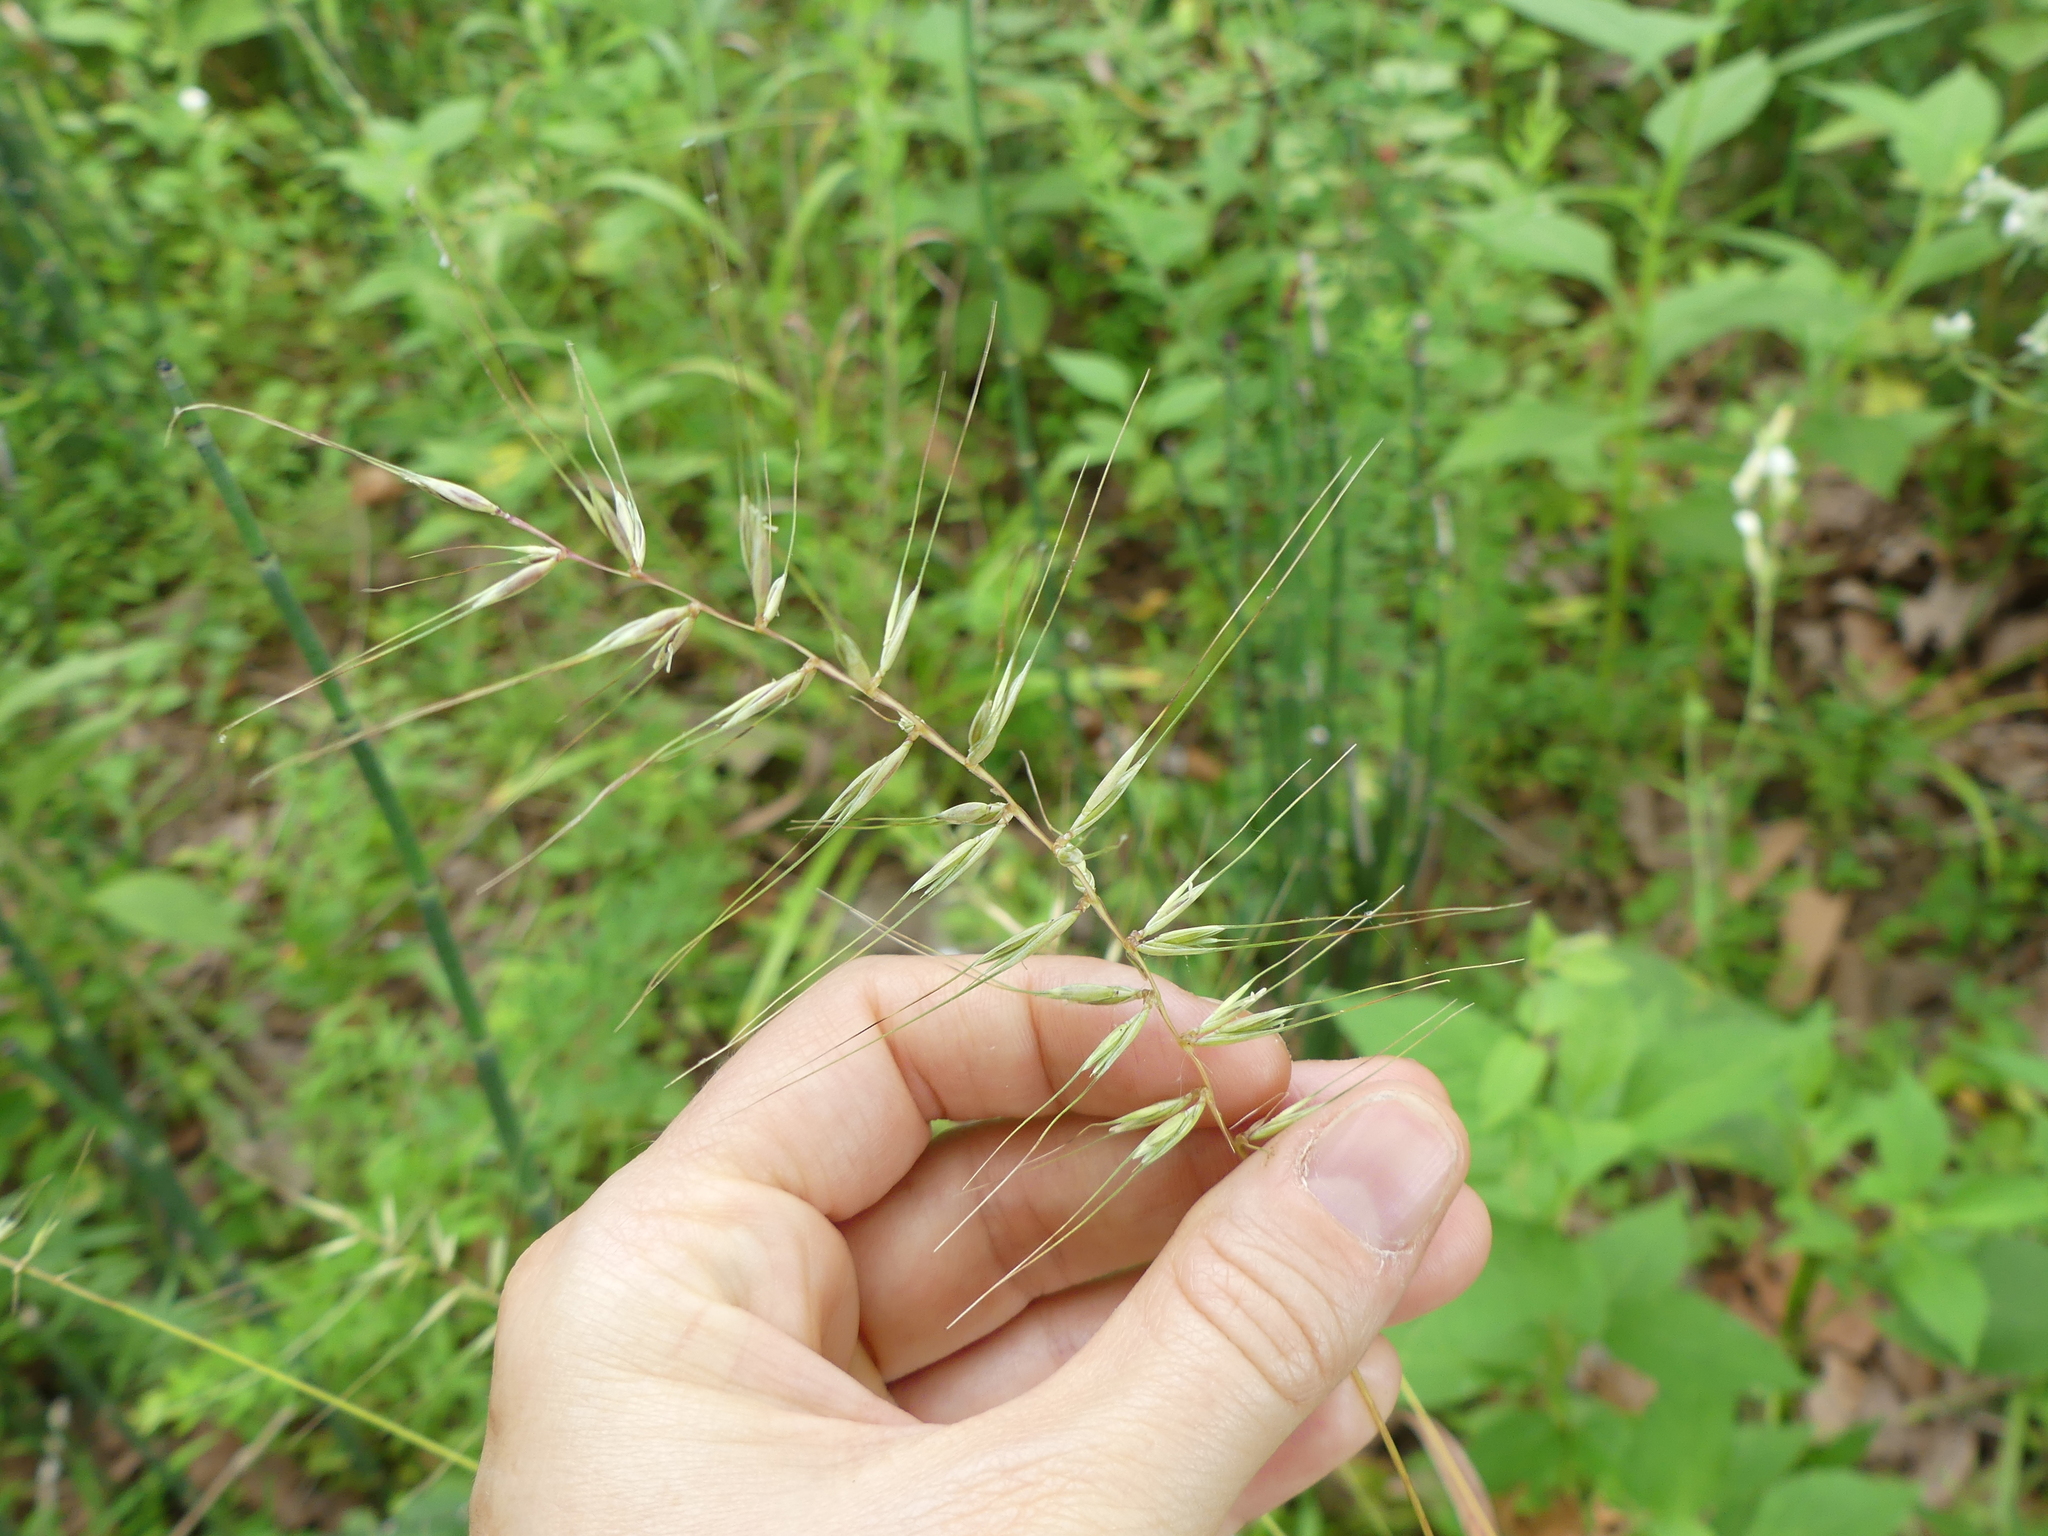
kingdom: Plantae
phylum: Tracheophyta
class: Liliopsida
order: Poales
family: Poaceae
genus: Elymus
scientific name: Elymus hystrix
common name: Bottlebrush grass
